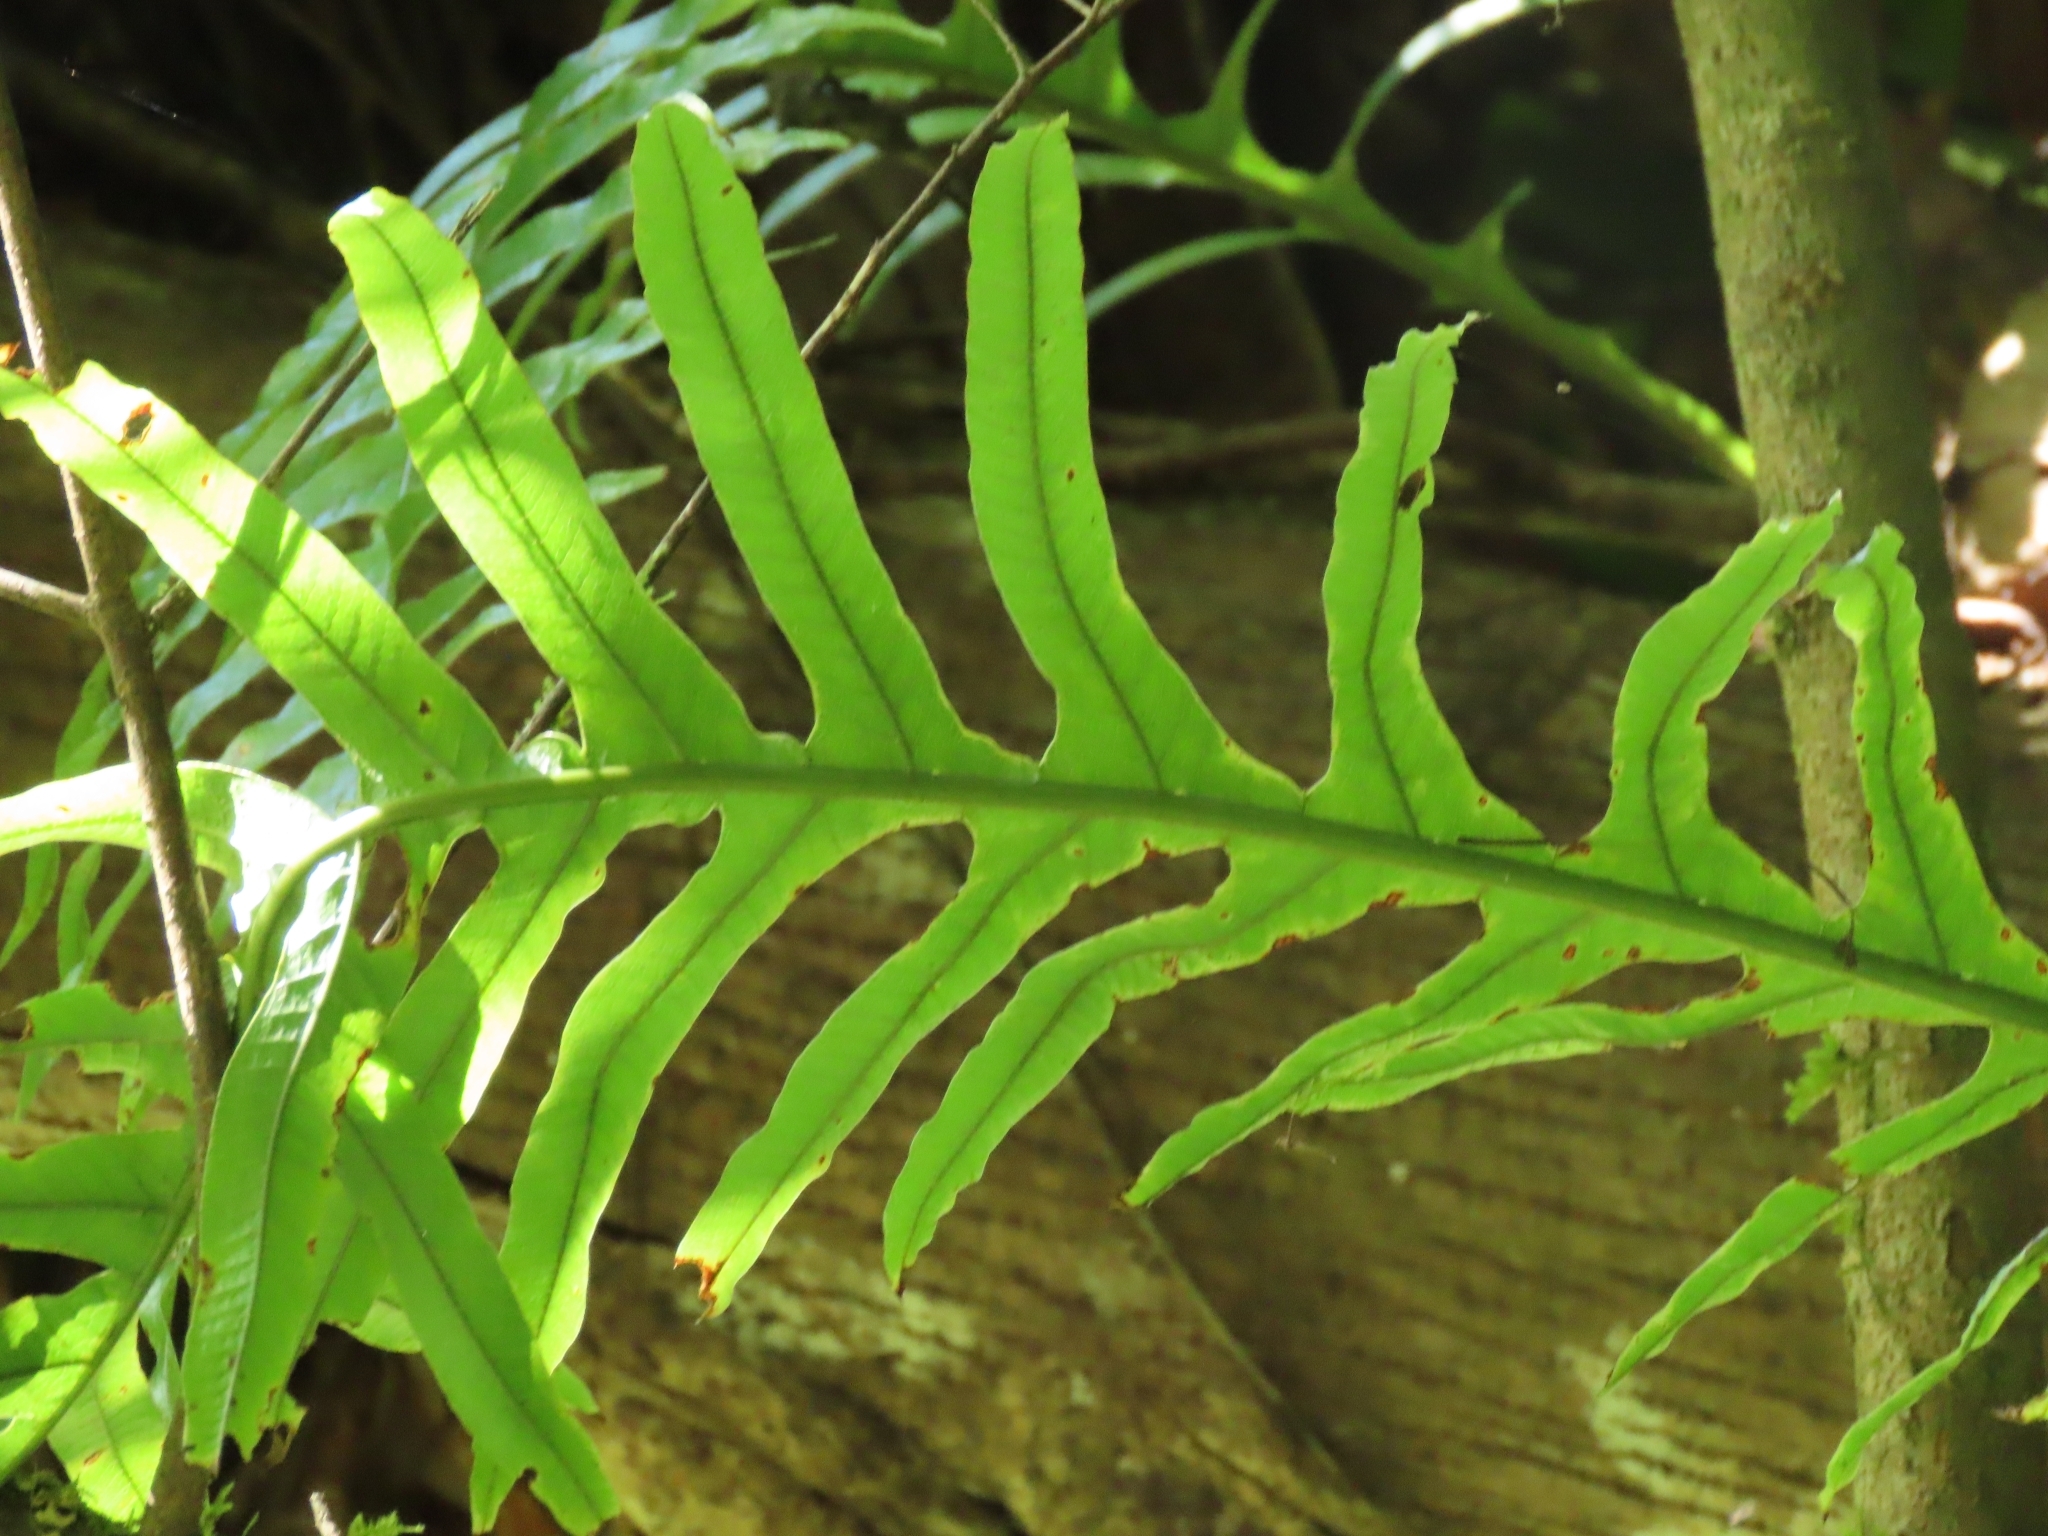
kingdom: Plantae
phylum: Tracheophyta
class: Polypodiopsida
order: Polypodiales
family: Polypodiaceae
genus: Drynaria
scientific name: Drynaria coronans
